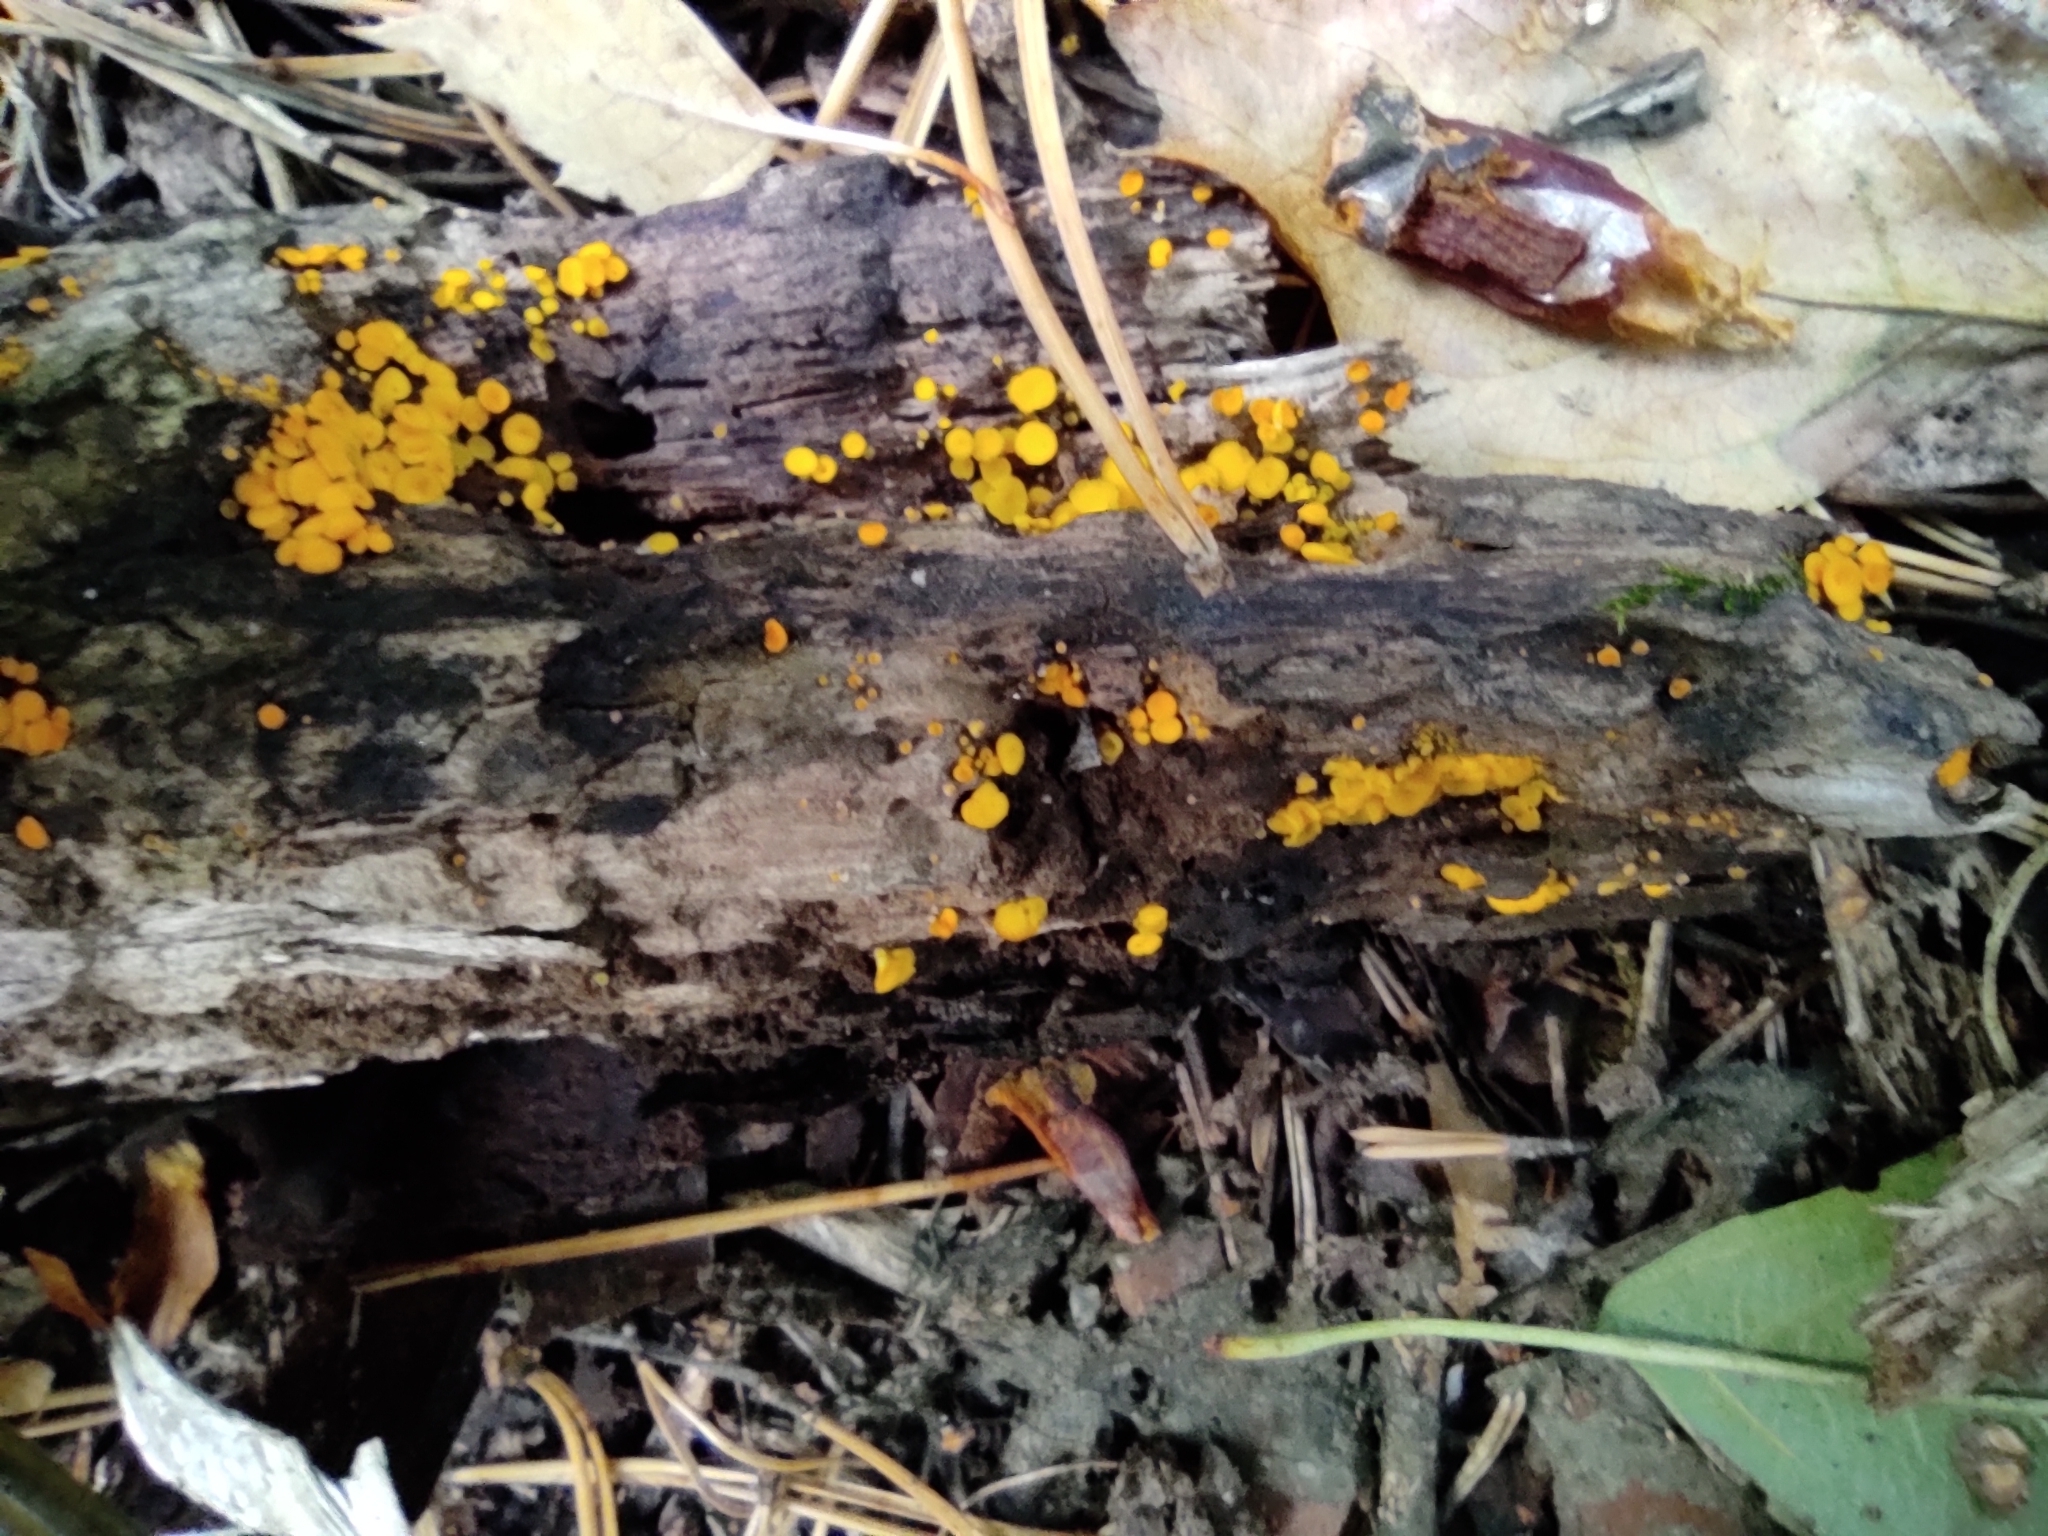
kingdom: Fungi
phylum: Ascomycota
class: Leotiomycetes
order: Helotiales
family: Pezizellaceae
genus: Calycina
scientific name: Calycina citrina
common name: Yellow fairy cups
